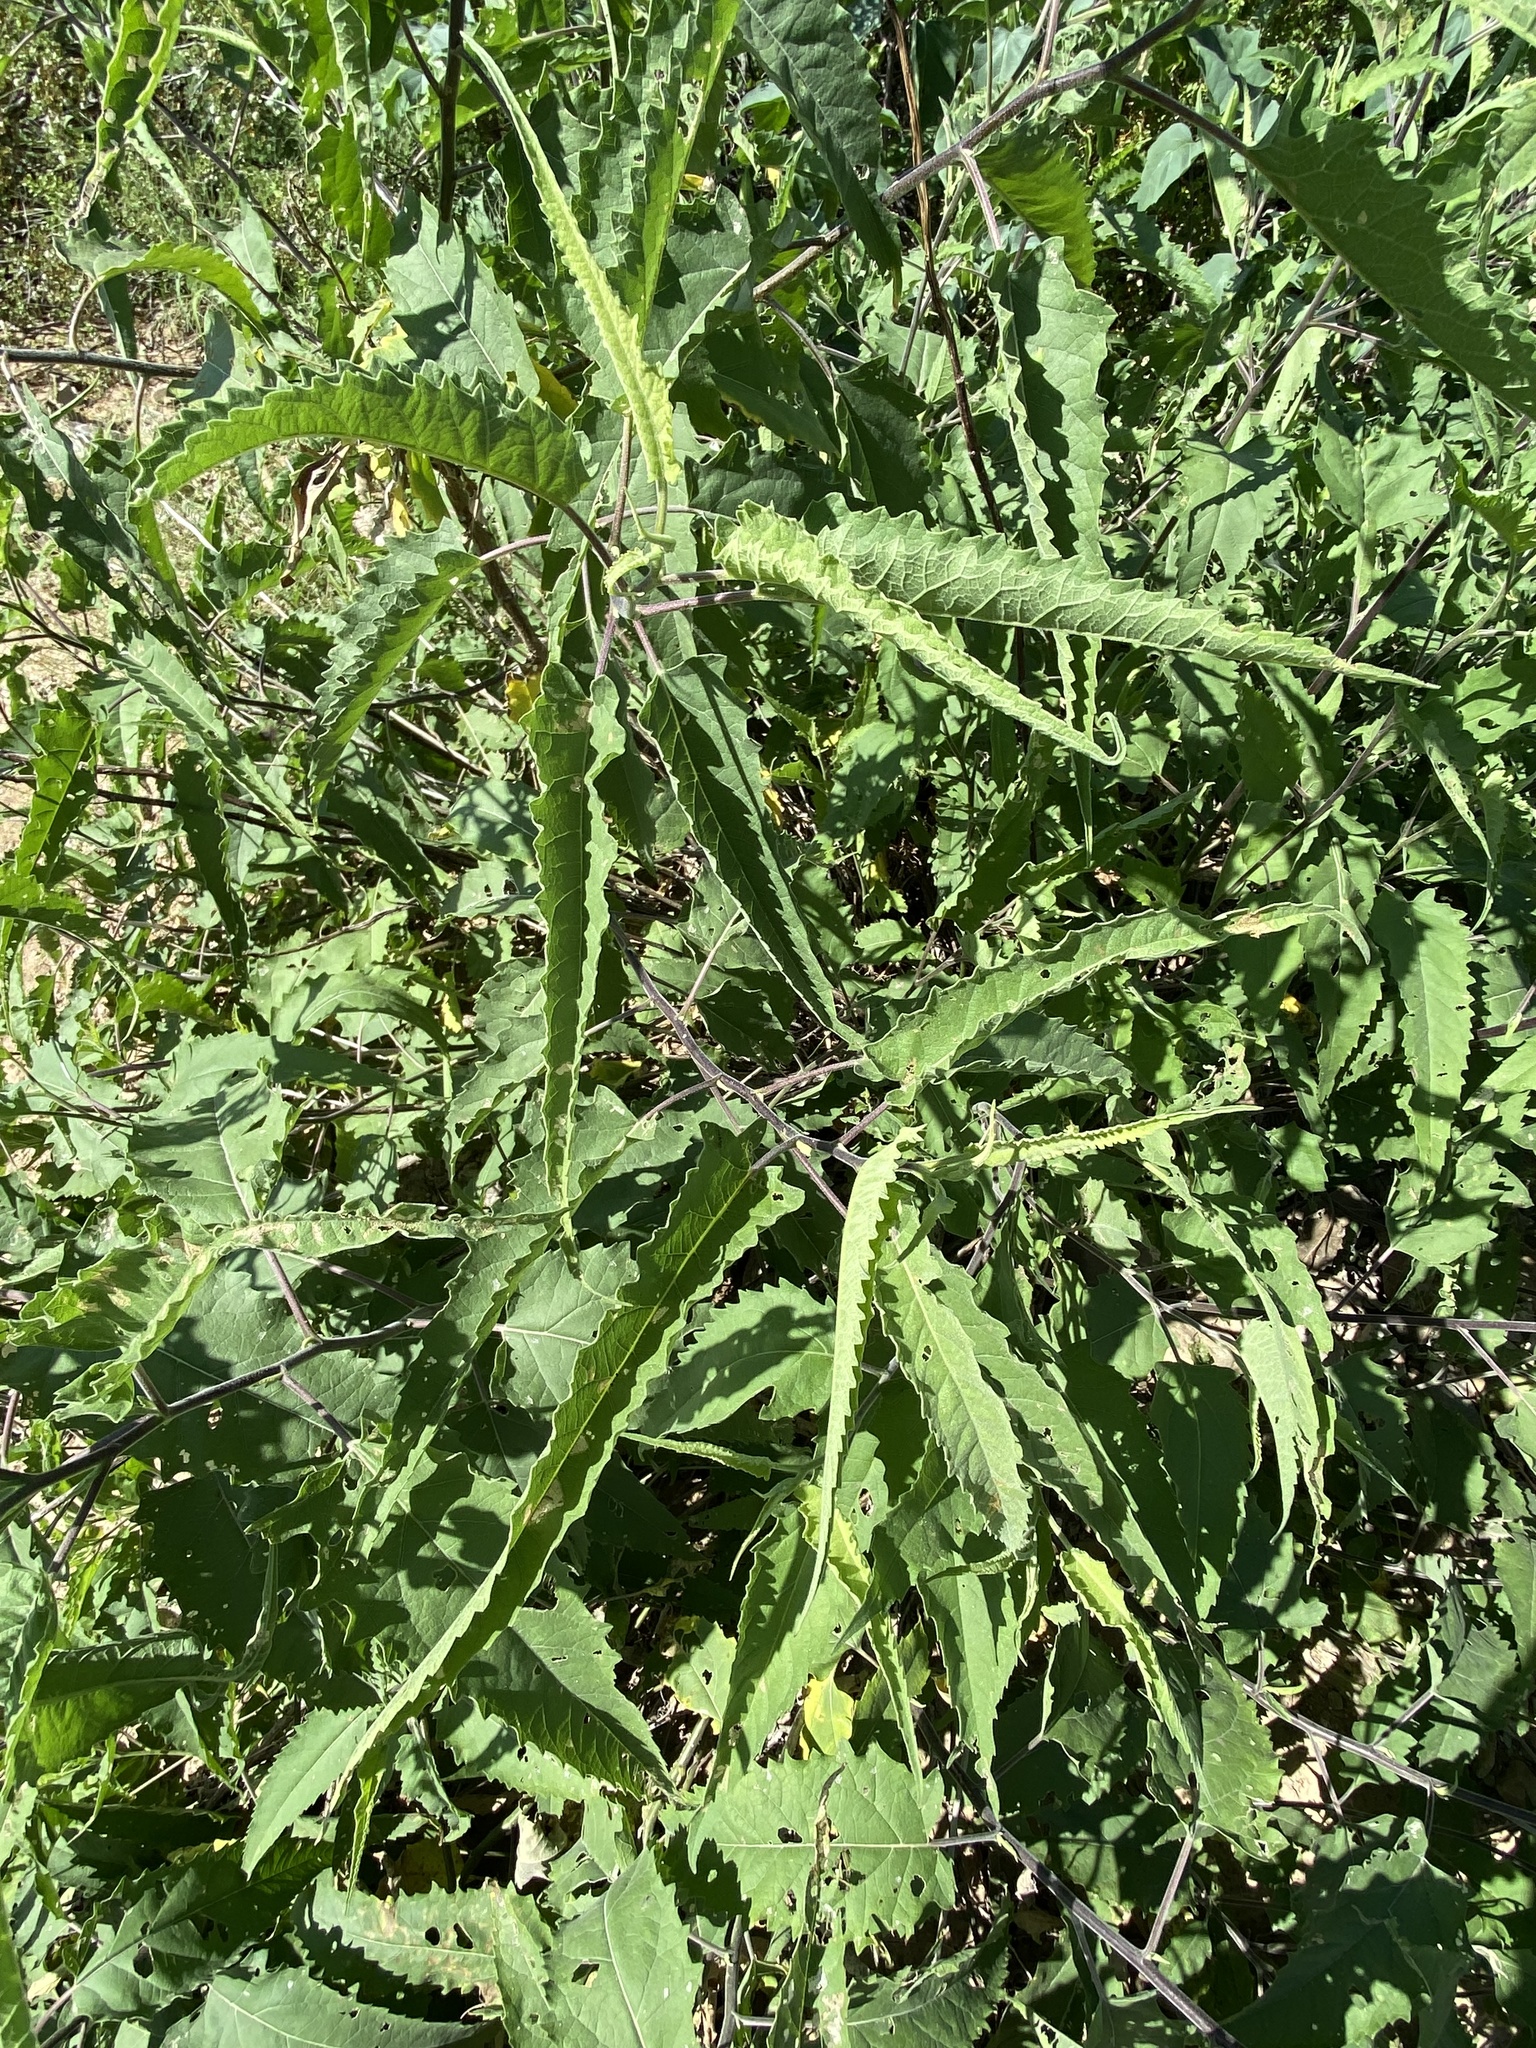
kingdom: Plantae
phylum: Tracheophyta
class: Magnoliopsida
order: Asterales
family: Asteraceae
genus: Ambrosia
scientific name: Ambrosia ambrosioides
